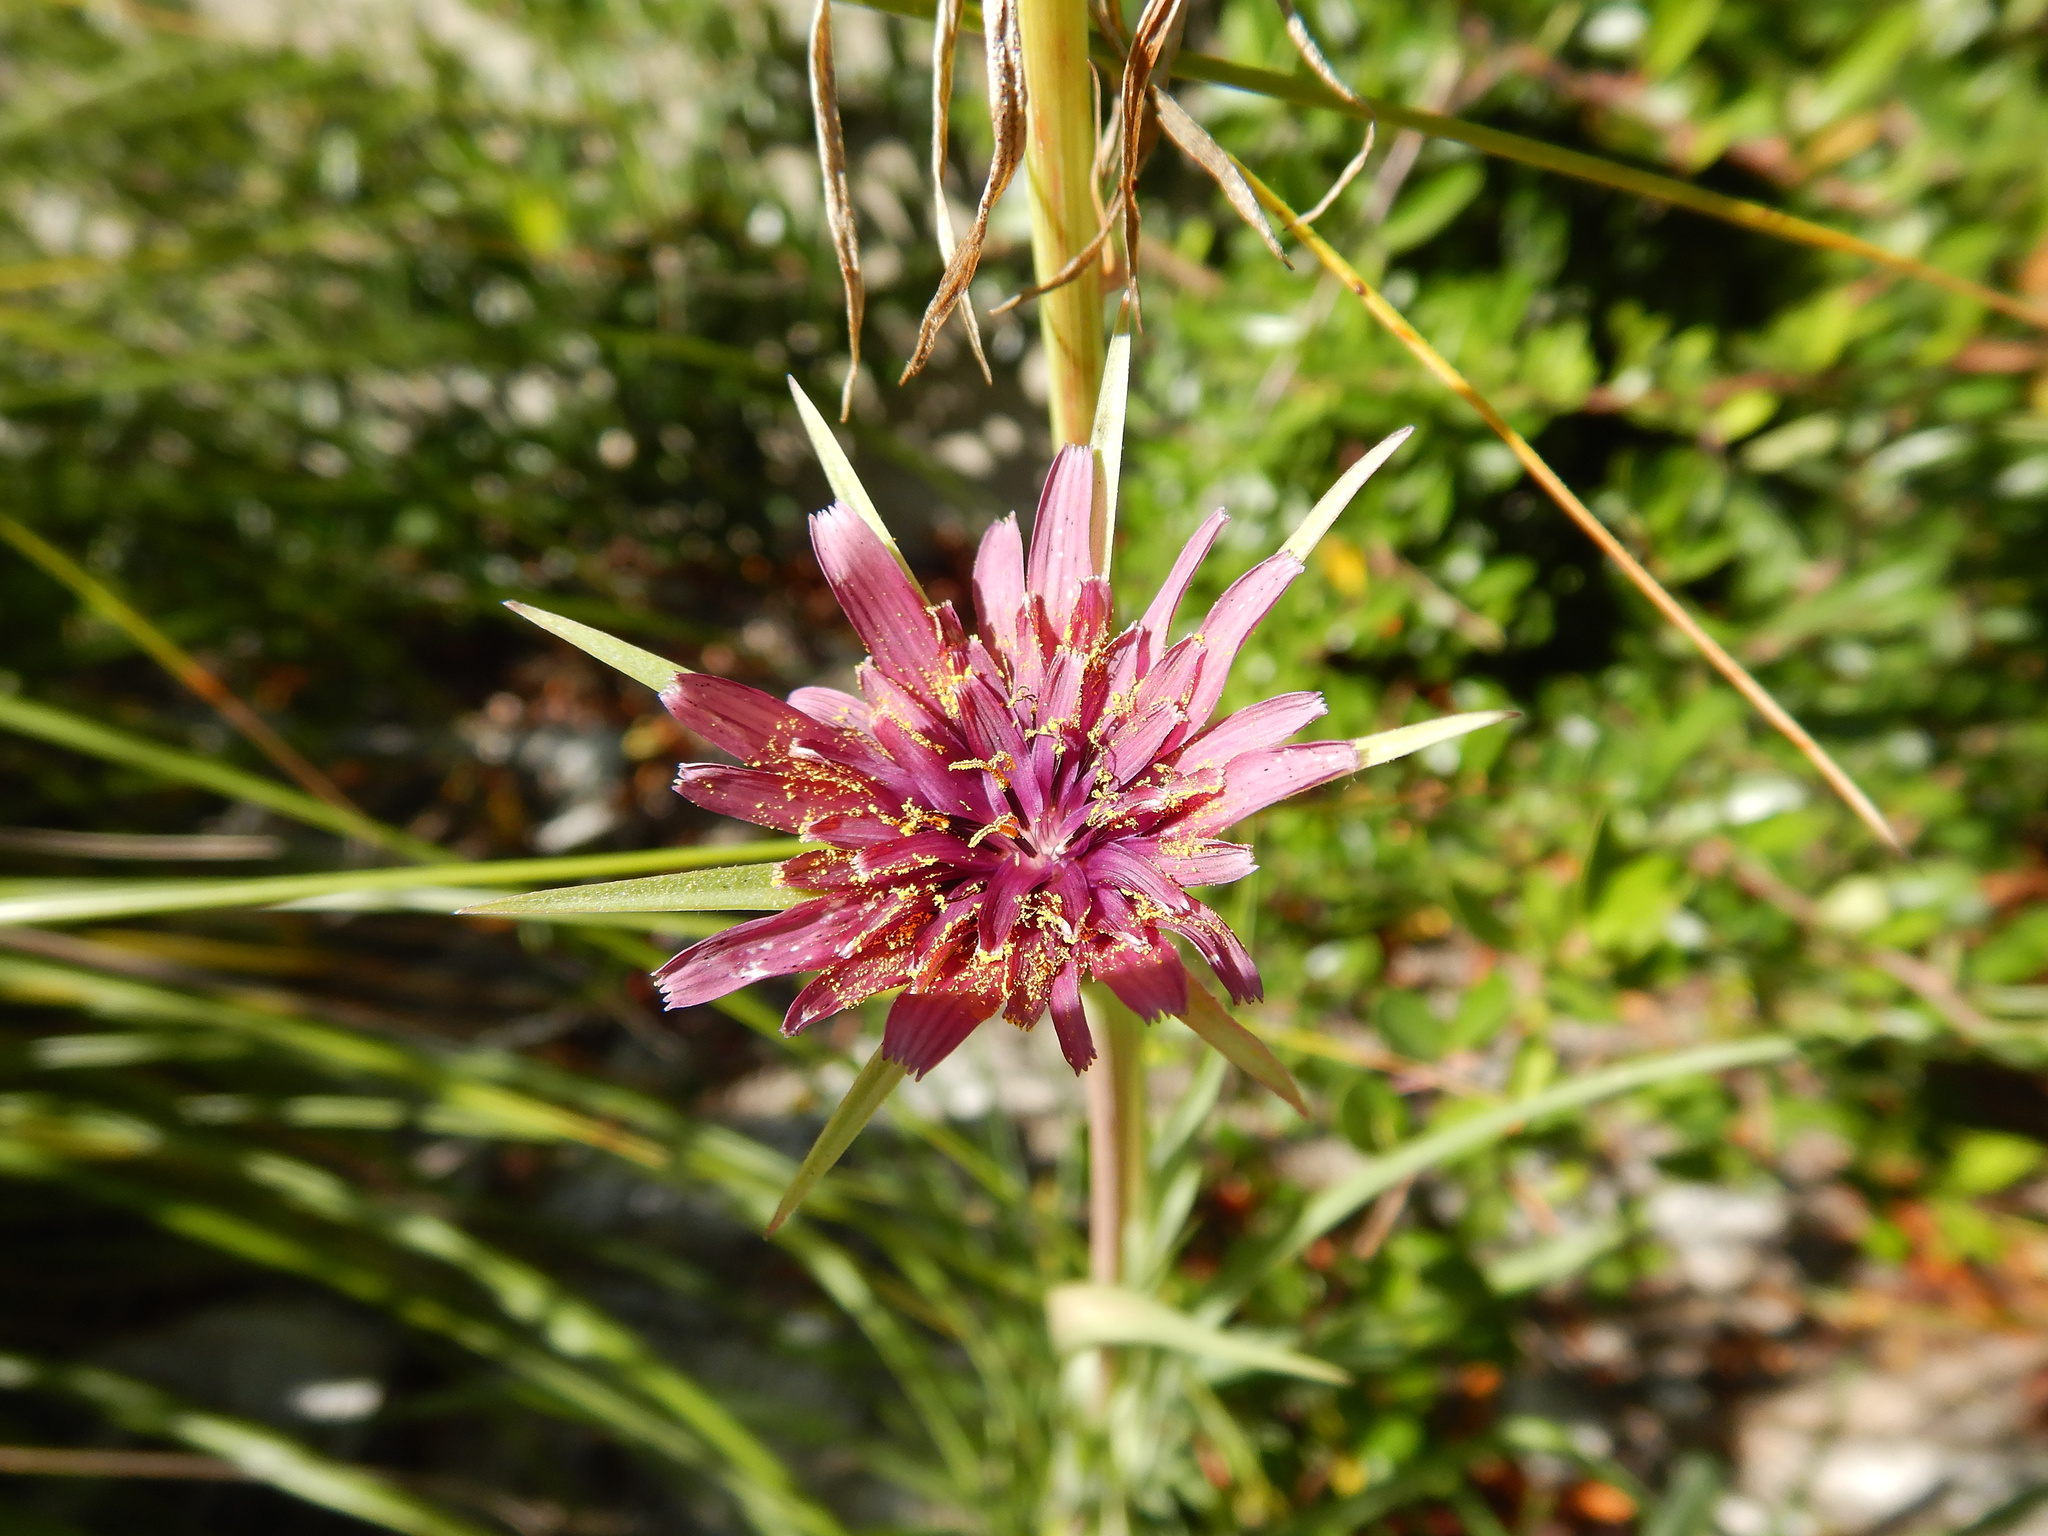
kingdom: Plantae
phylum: Tracheophyta
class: Magnoliopsida
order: Asterales
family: Asteraceae
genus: Tragopogon
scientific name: Tragopogon porrifolius
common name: Salsify
